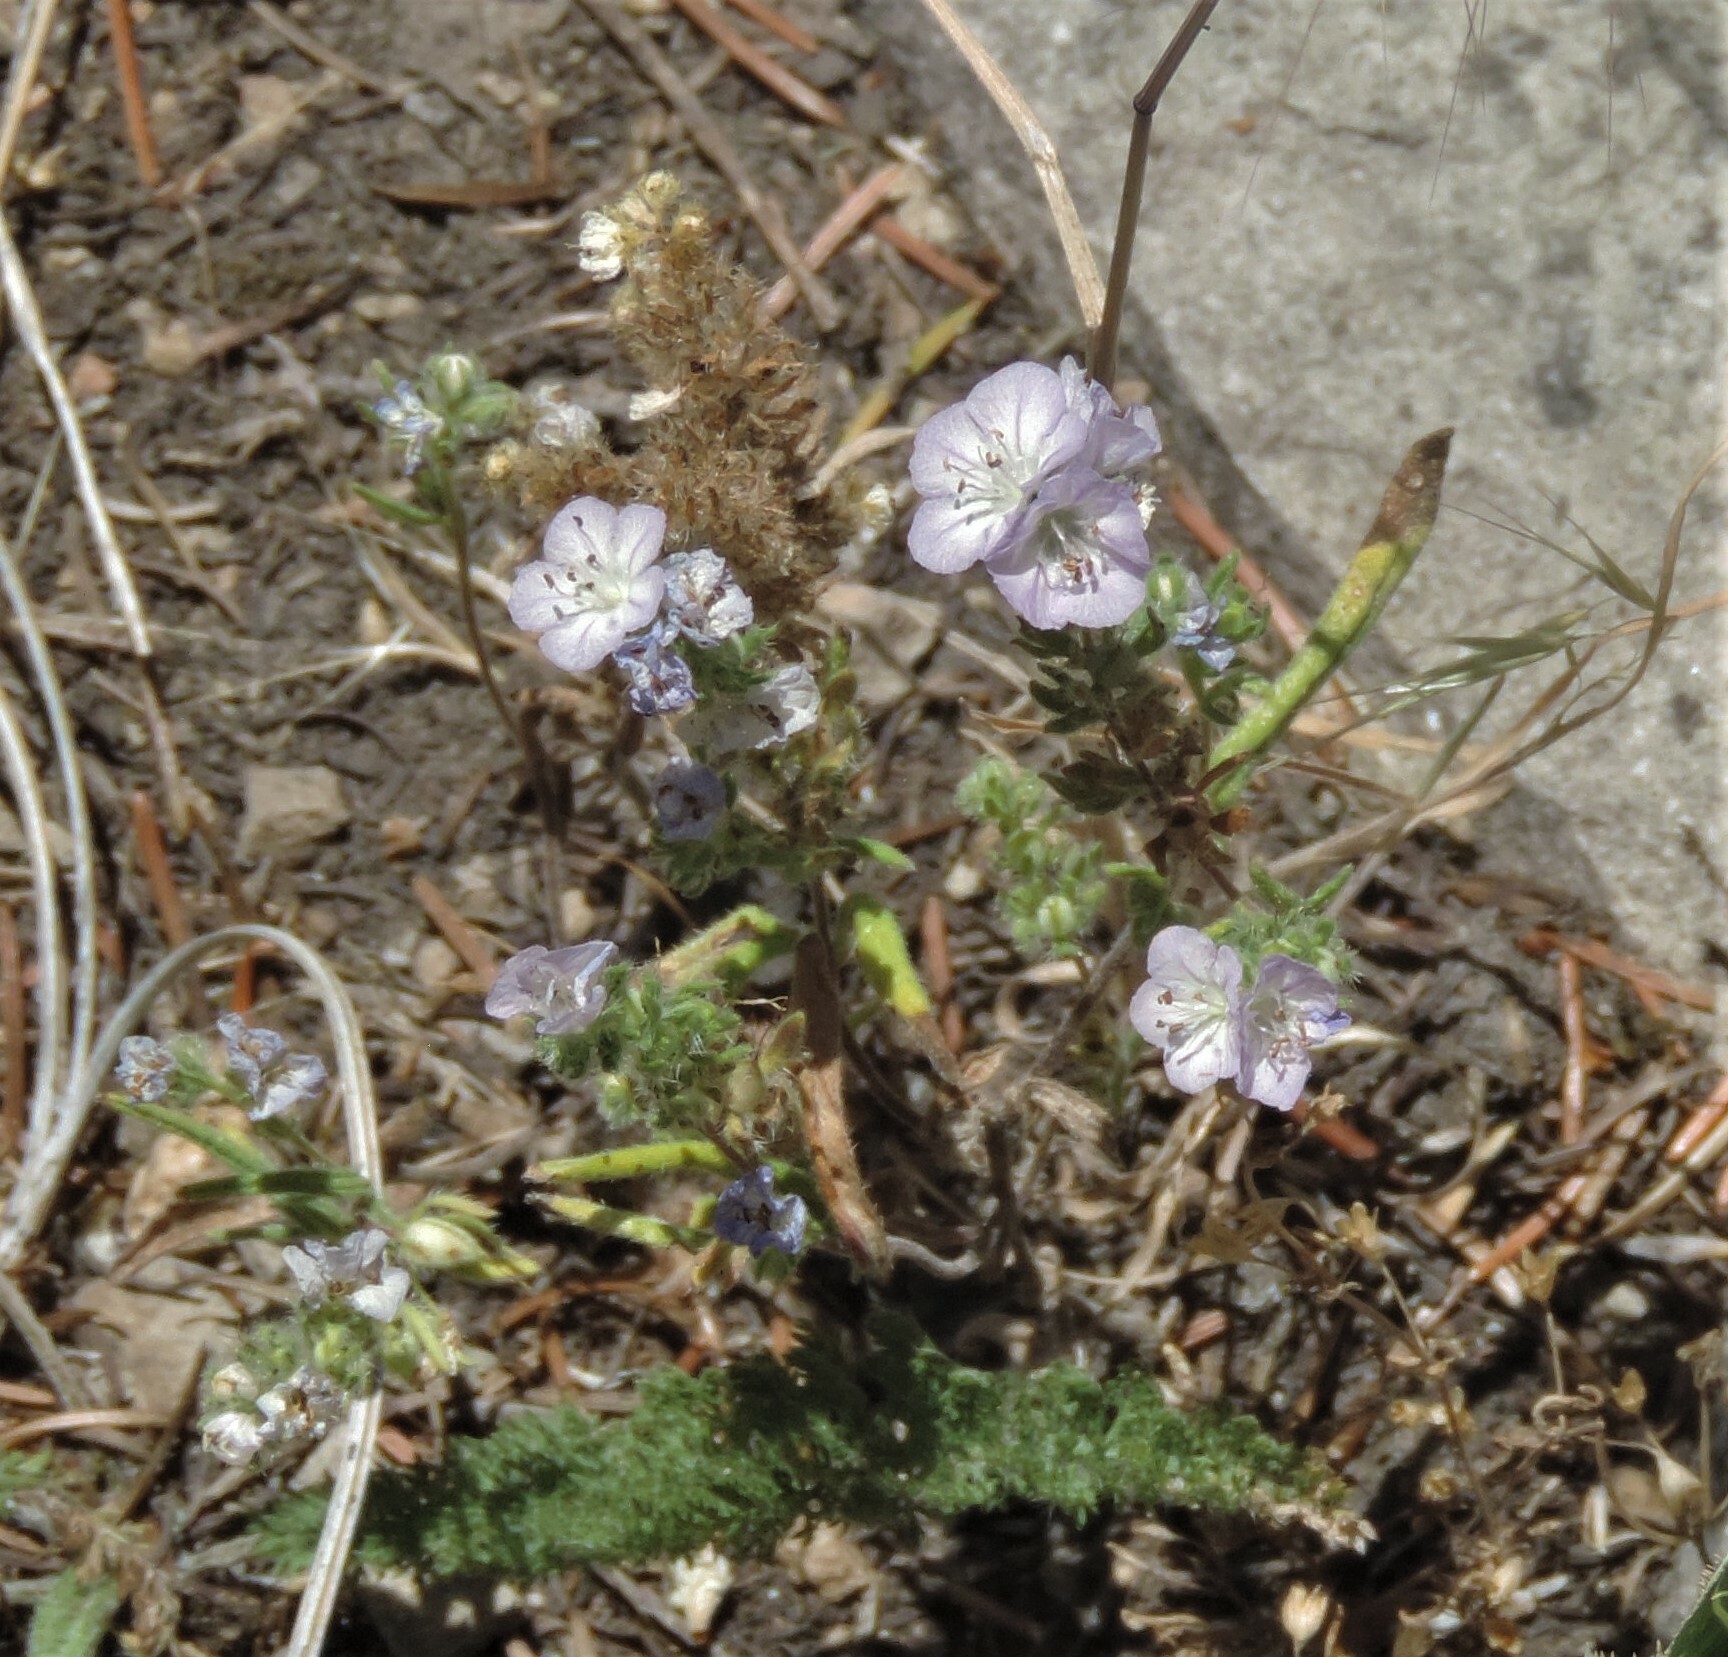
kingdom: Plantae
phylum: Tracheophyta
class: Magnoliopsida
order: Boraginales
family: Hydrophyllaceae
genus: Phacelia
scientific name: Phacelia linearis
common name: Linear-leaved phacelia
